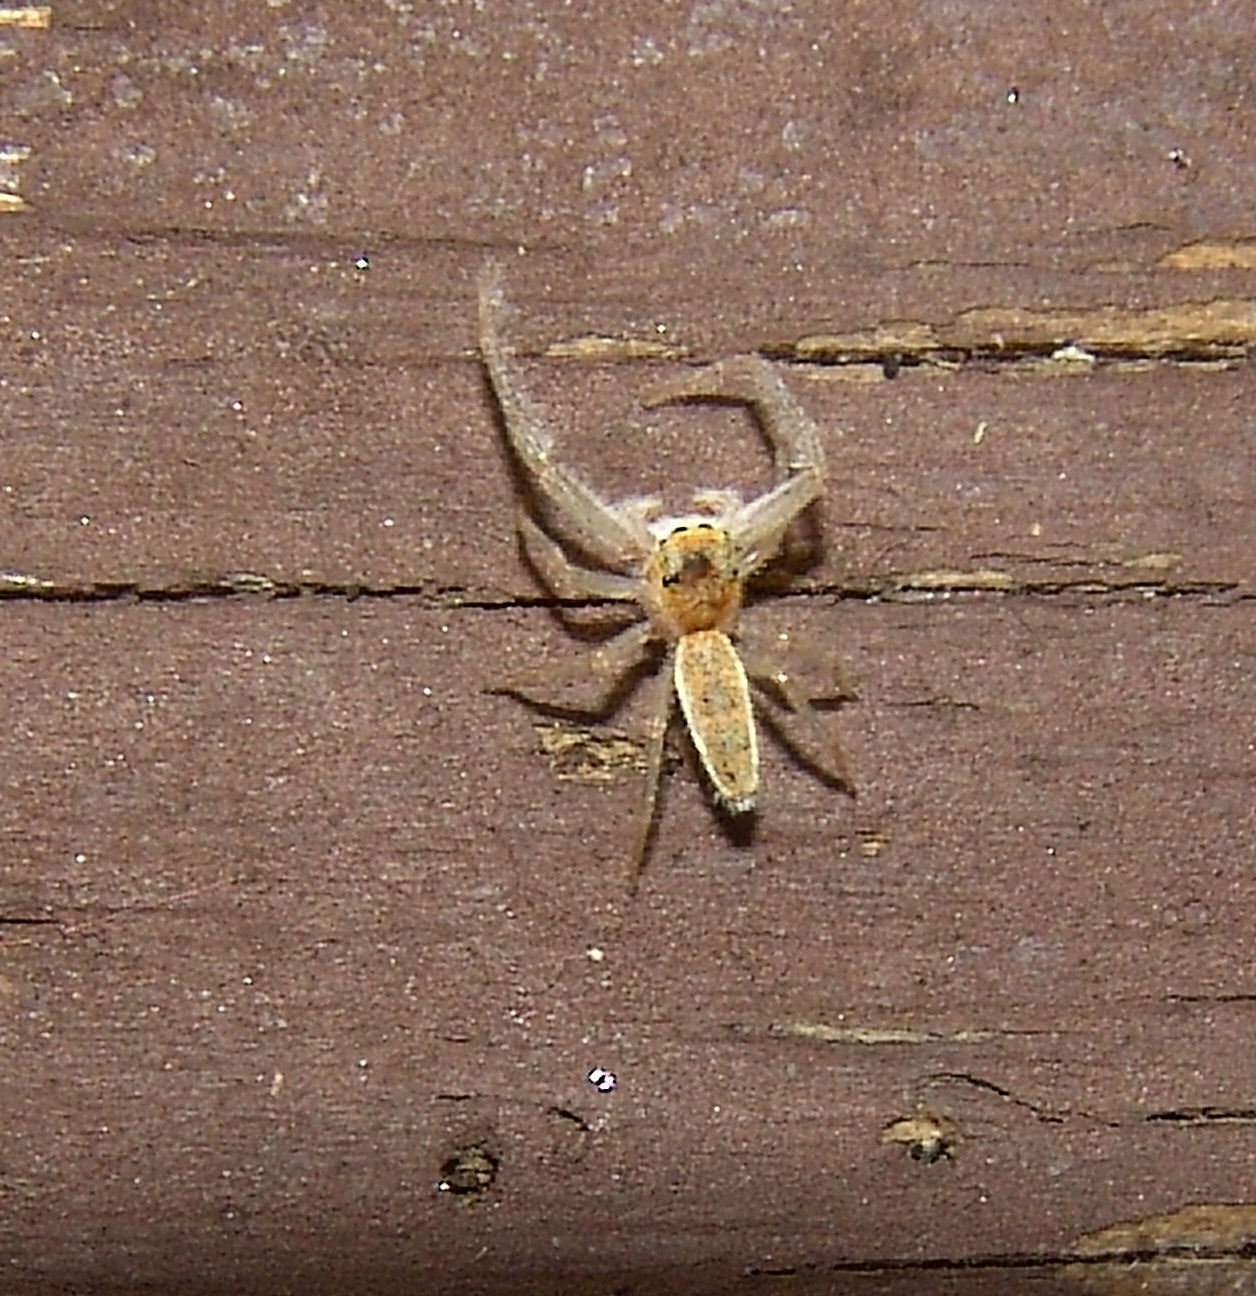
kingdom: Animalia
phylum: Arthropoda
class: Arachnida
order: Araneae
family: Salticidae
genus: Hentzia
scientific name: Hentzia mitrata
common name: White-jawed jumping spider
